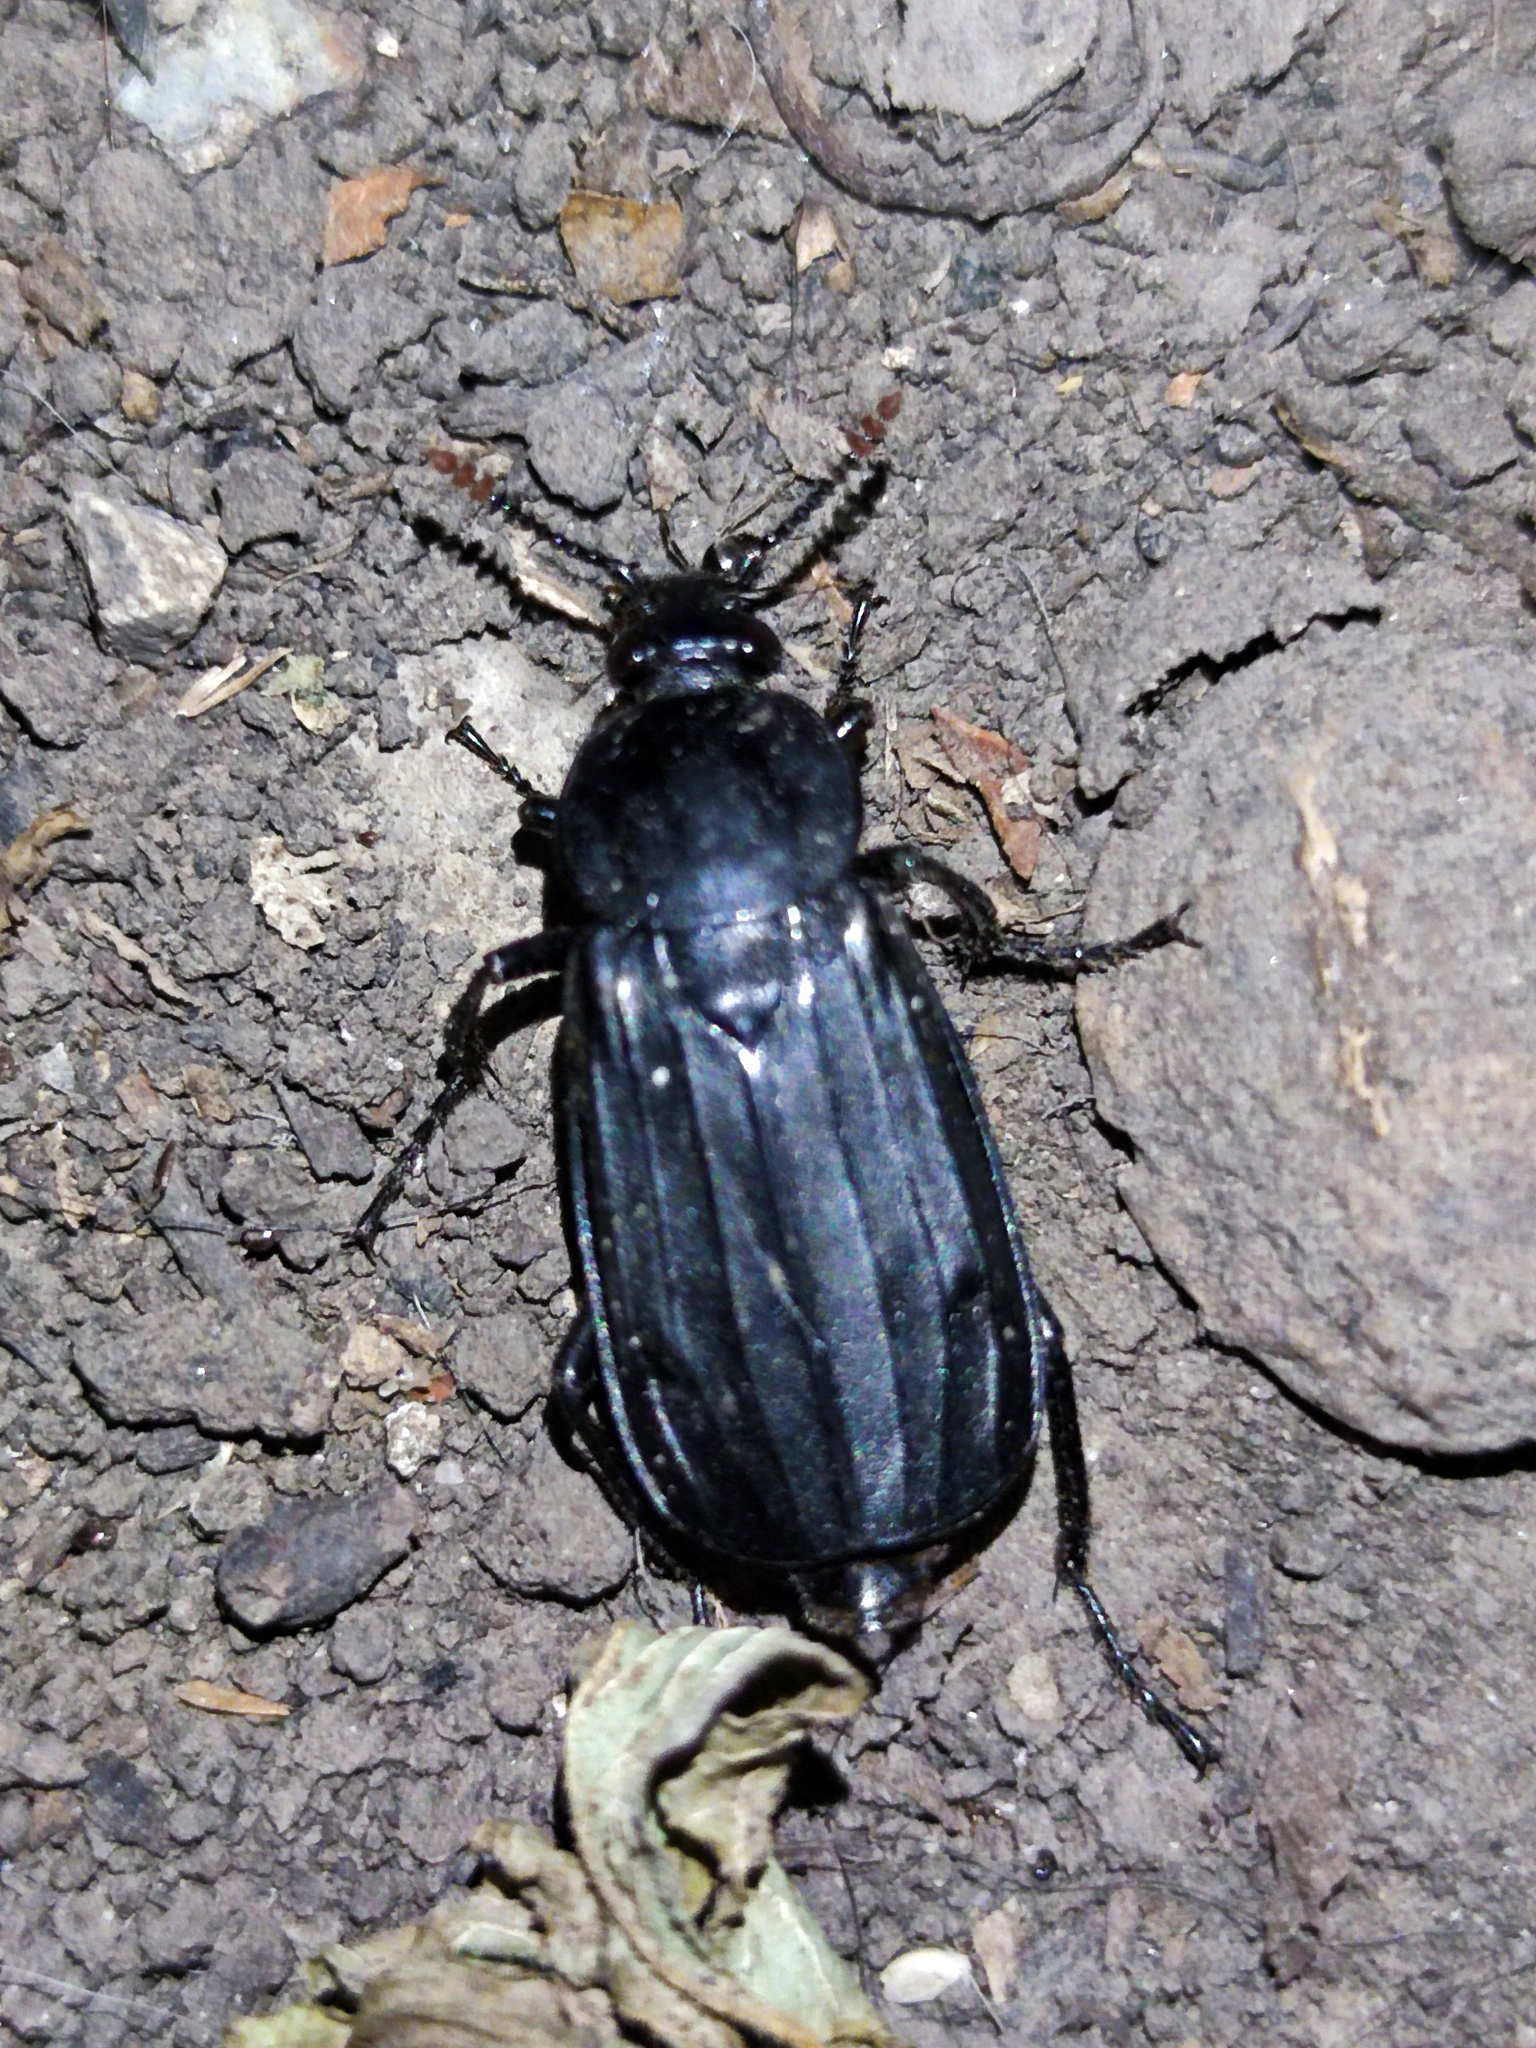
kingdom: Animalia
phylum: Arthropoda
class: Insecta
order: Coleoptera
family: Staphylinidae
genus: Necrodes
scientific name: Necrodes littoralis
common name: Shore sexton beetle
